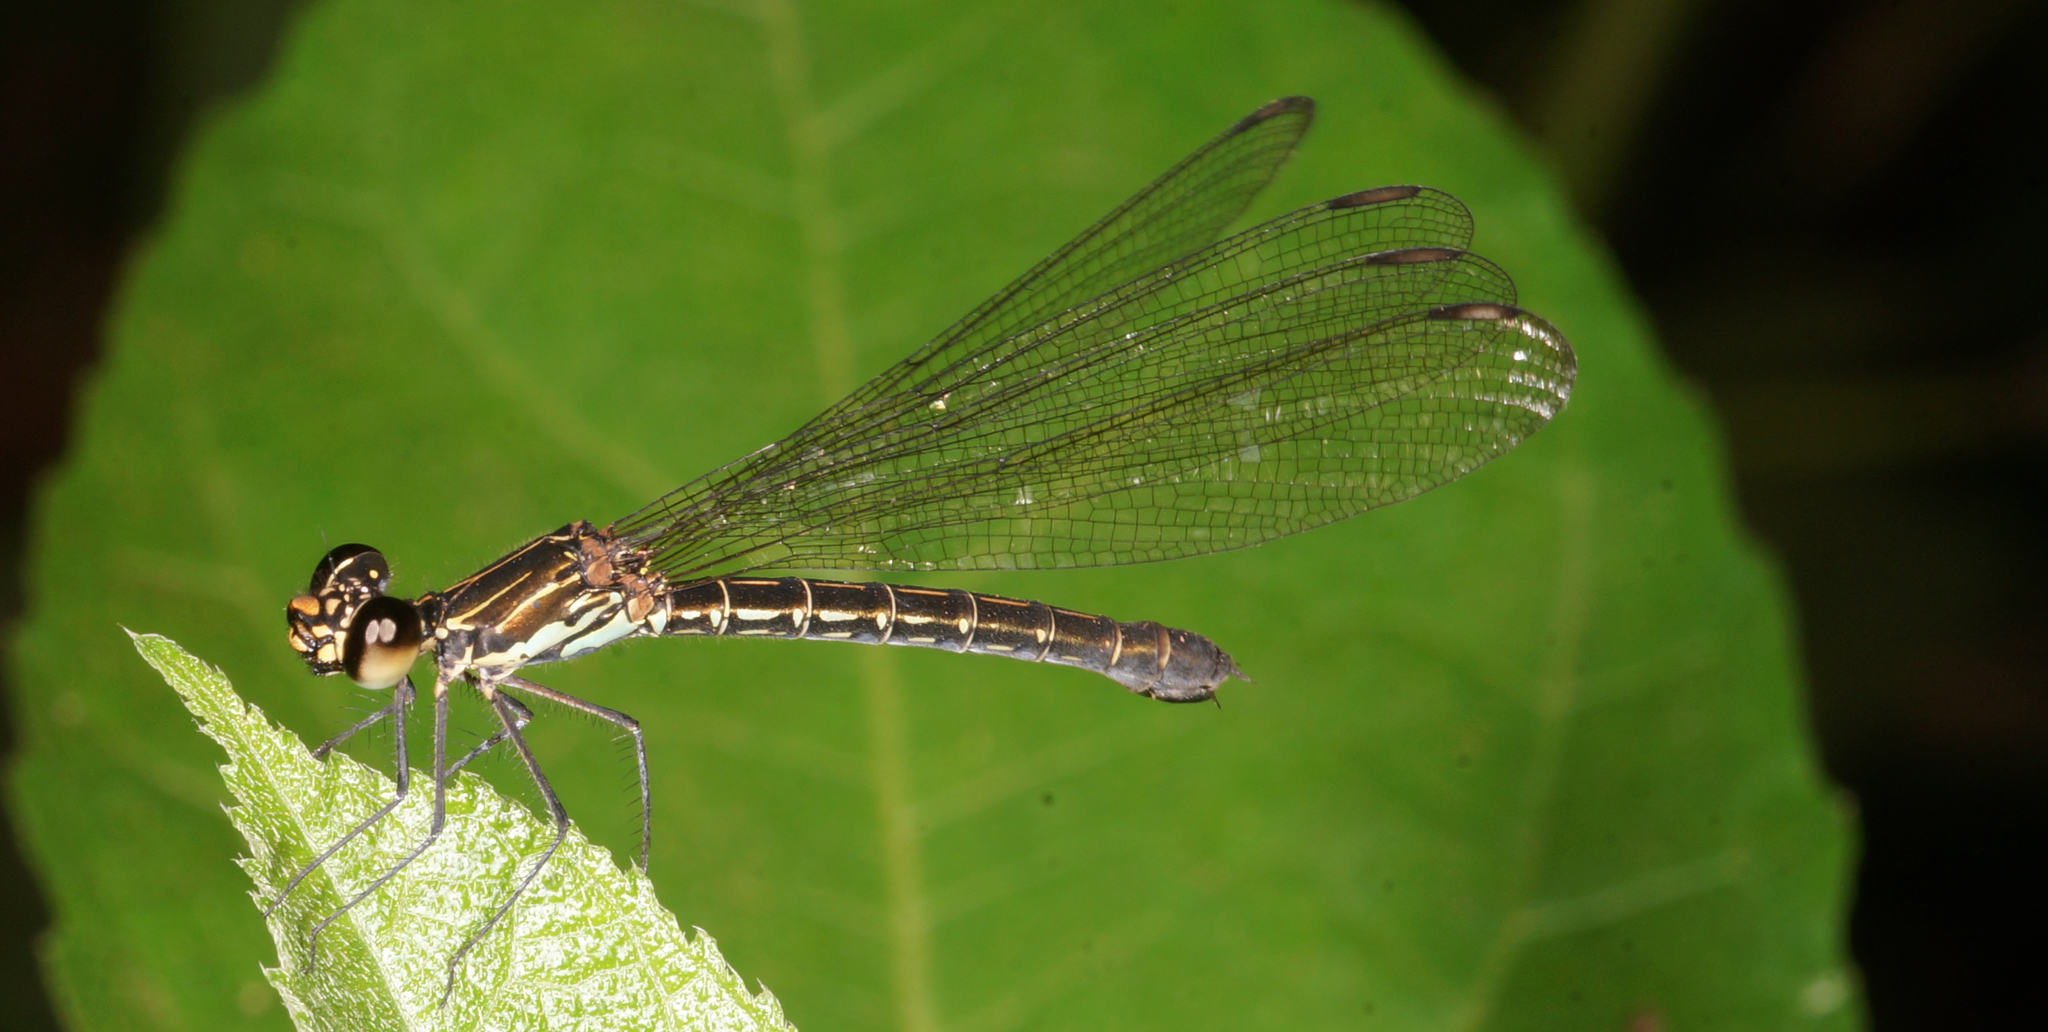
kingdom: Animalia
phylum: Arthropoda
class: Insecta
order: Odonata
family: Chlorocyphidae
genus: Heliocypha
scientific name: Heliocypha biforata
